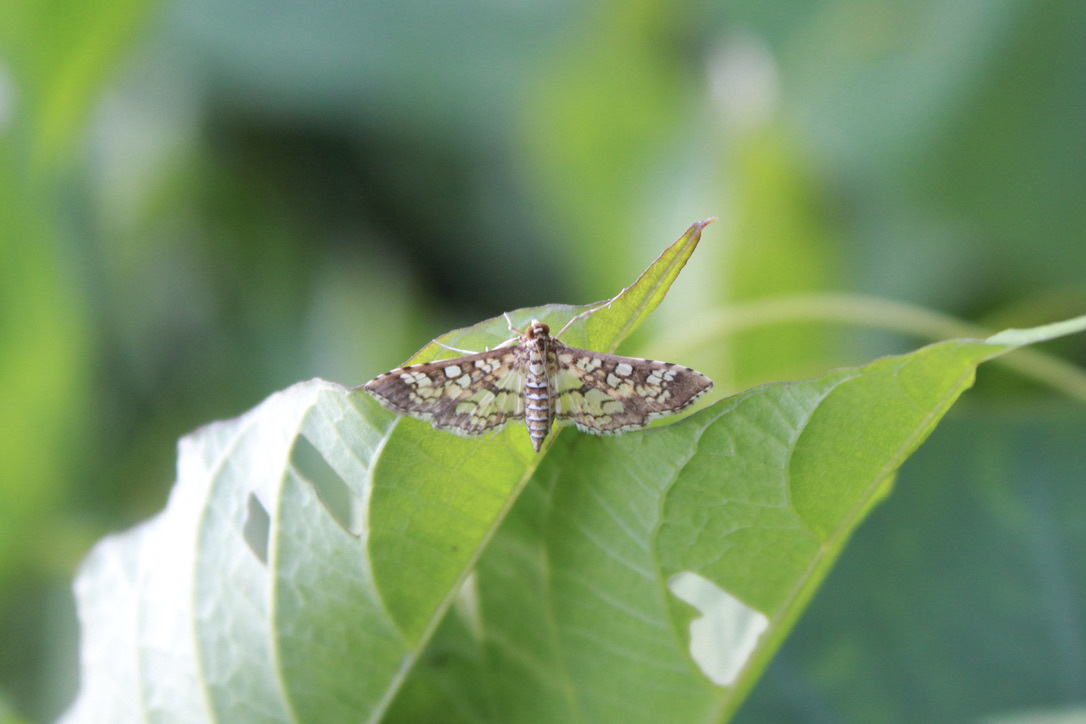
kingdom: Animalia
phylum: Arthropoda
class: Insecta
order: Lepidoptera
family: Crambidae
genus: Samea
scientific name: Samea ecclesialis
